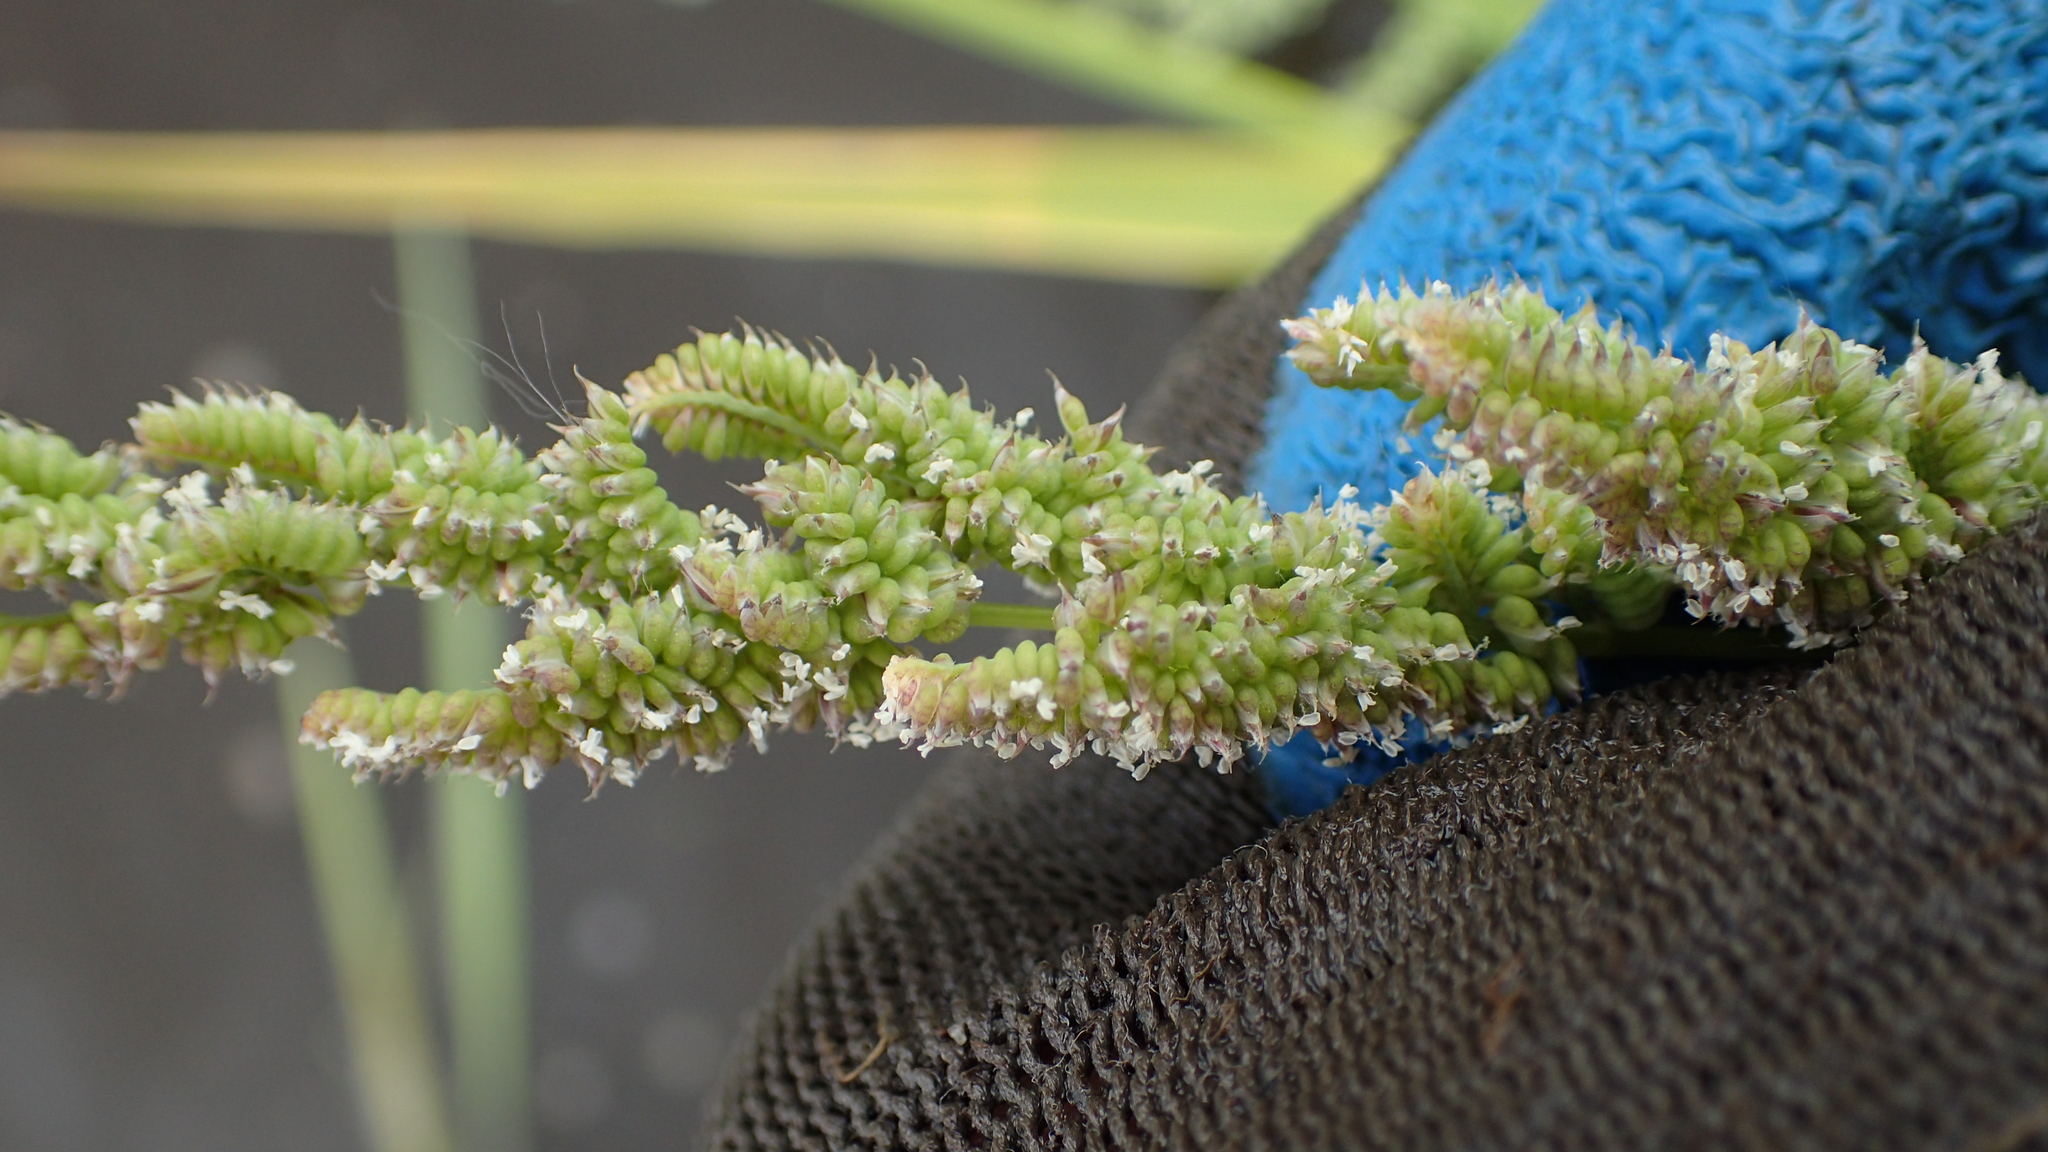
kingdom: Plantae
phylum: Tracheophyta
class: Liliopsida
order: Poales
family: Poaceae
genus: Beckmannia
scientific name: Beckmannia syzigachne
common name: American slough-grass
